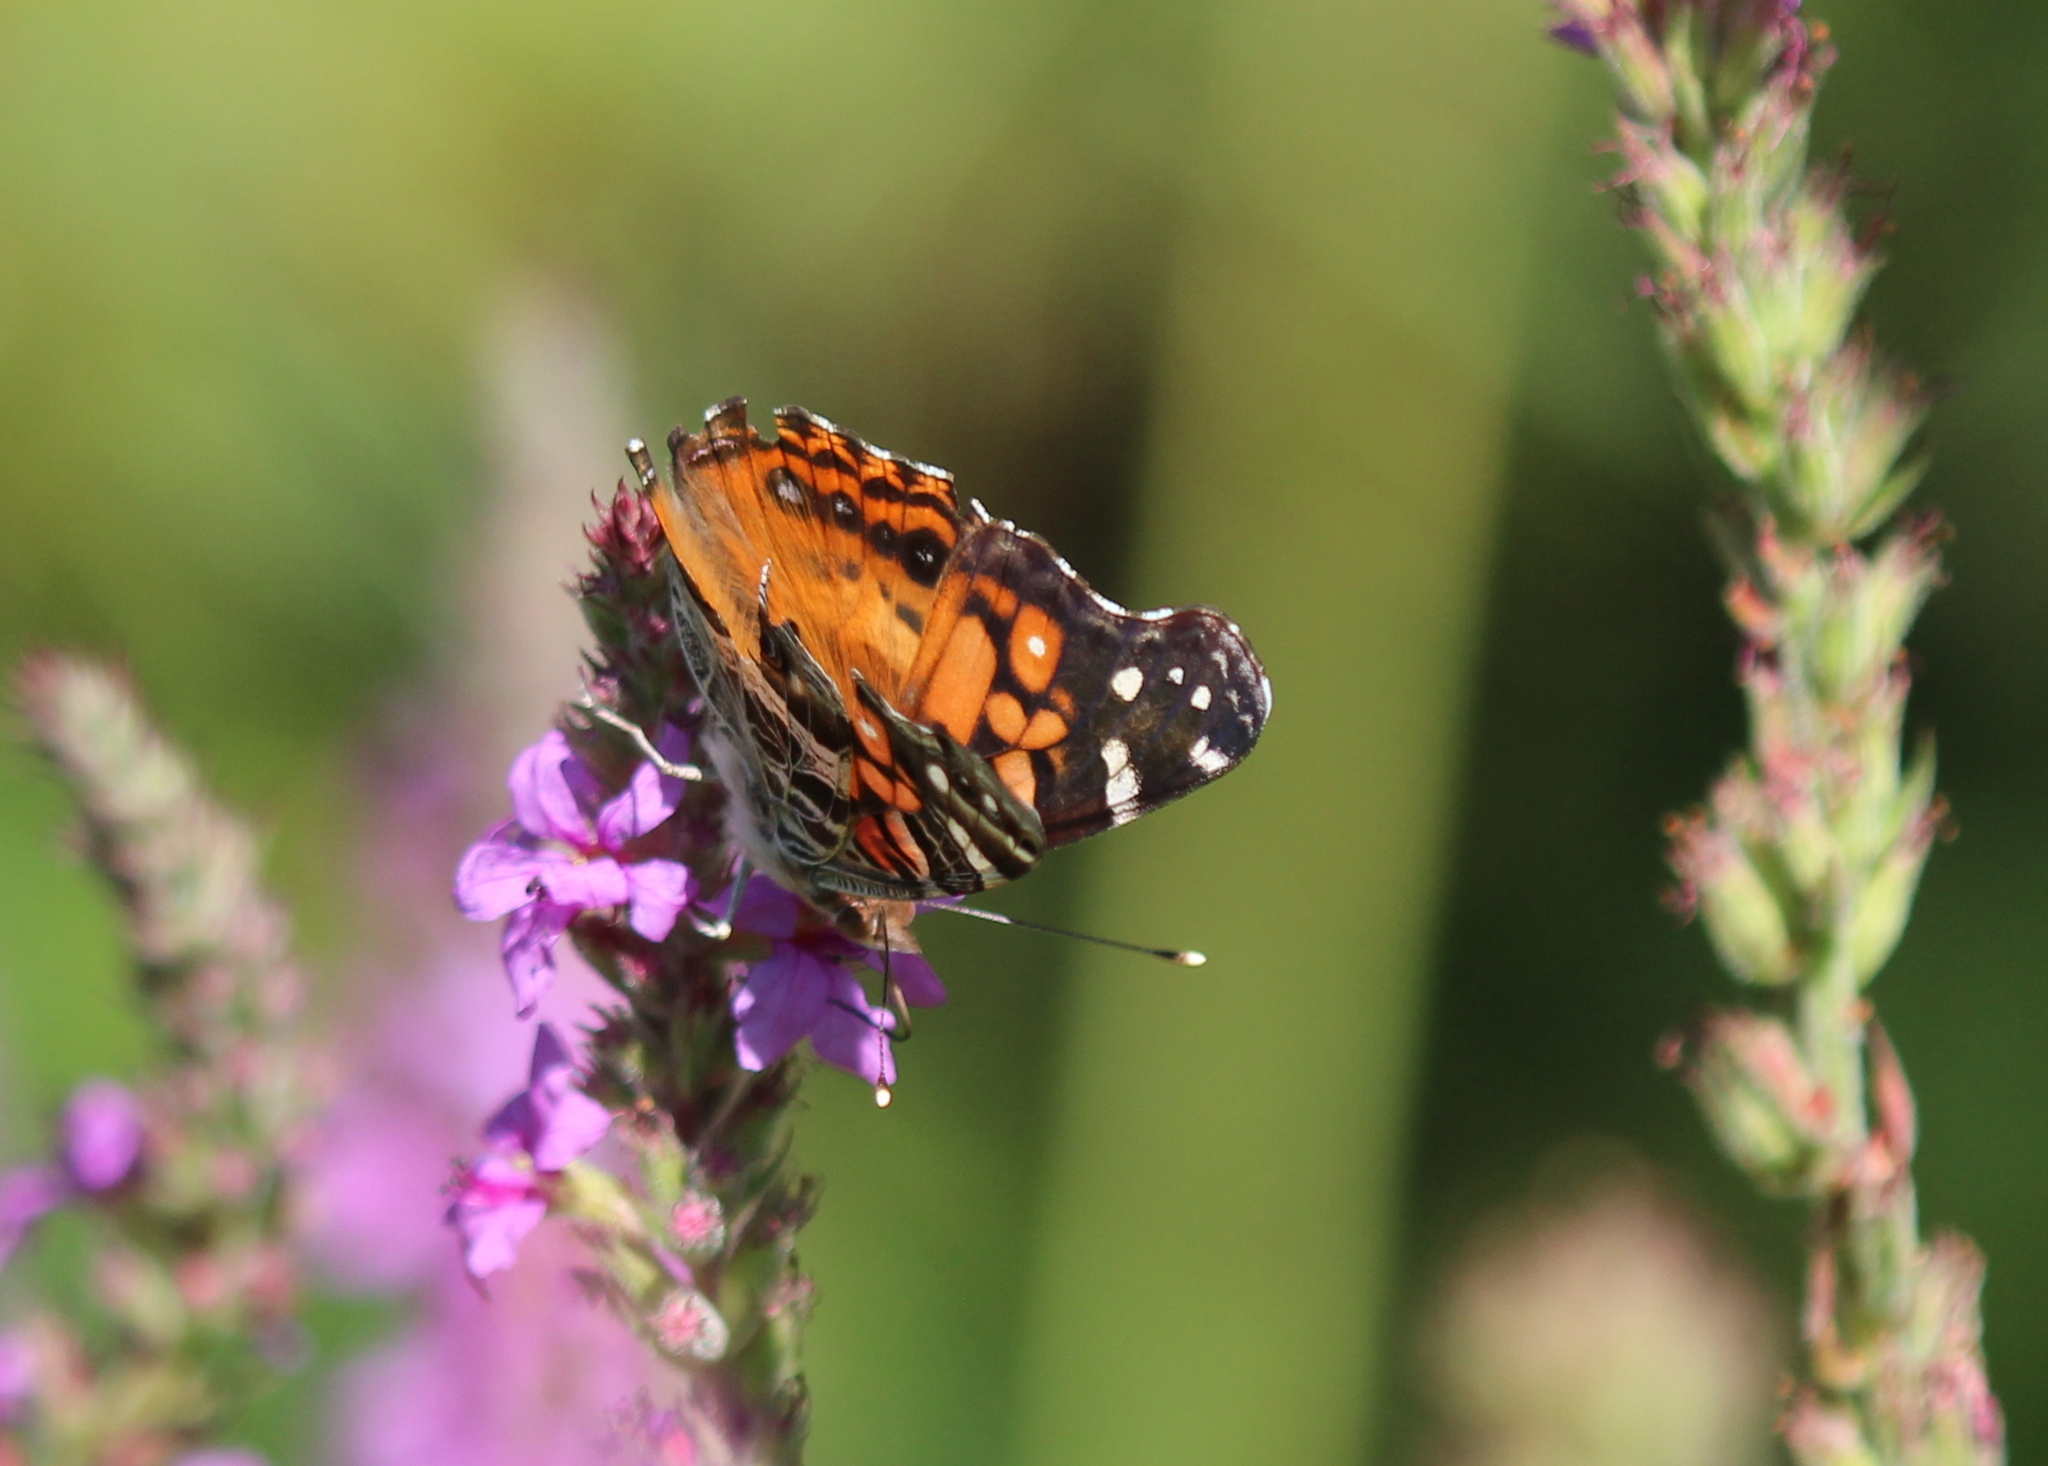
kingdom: Animalia
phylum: Arthropoda
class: Insecta
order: Lepidoptera
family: Nymphalidae
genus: Vanessa
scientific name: Vanessa virginiensis
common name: American lady
